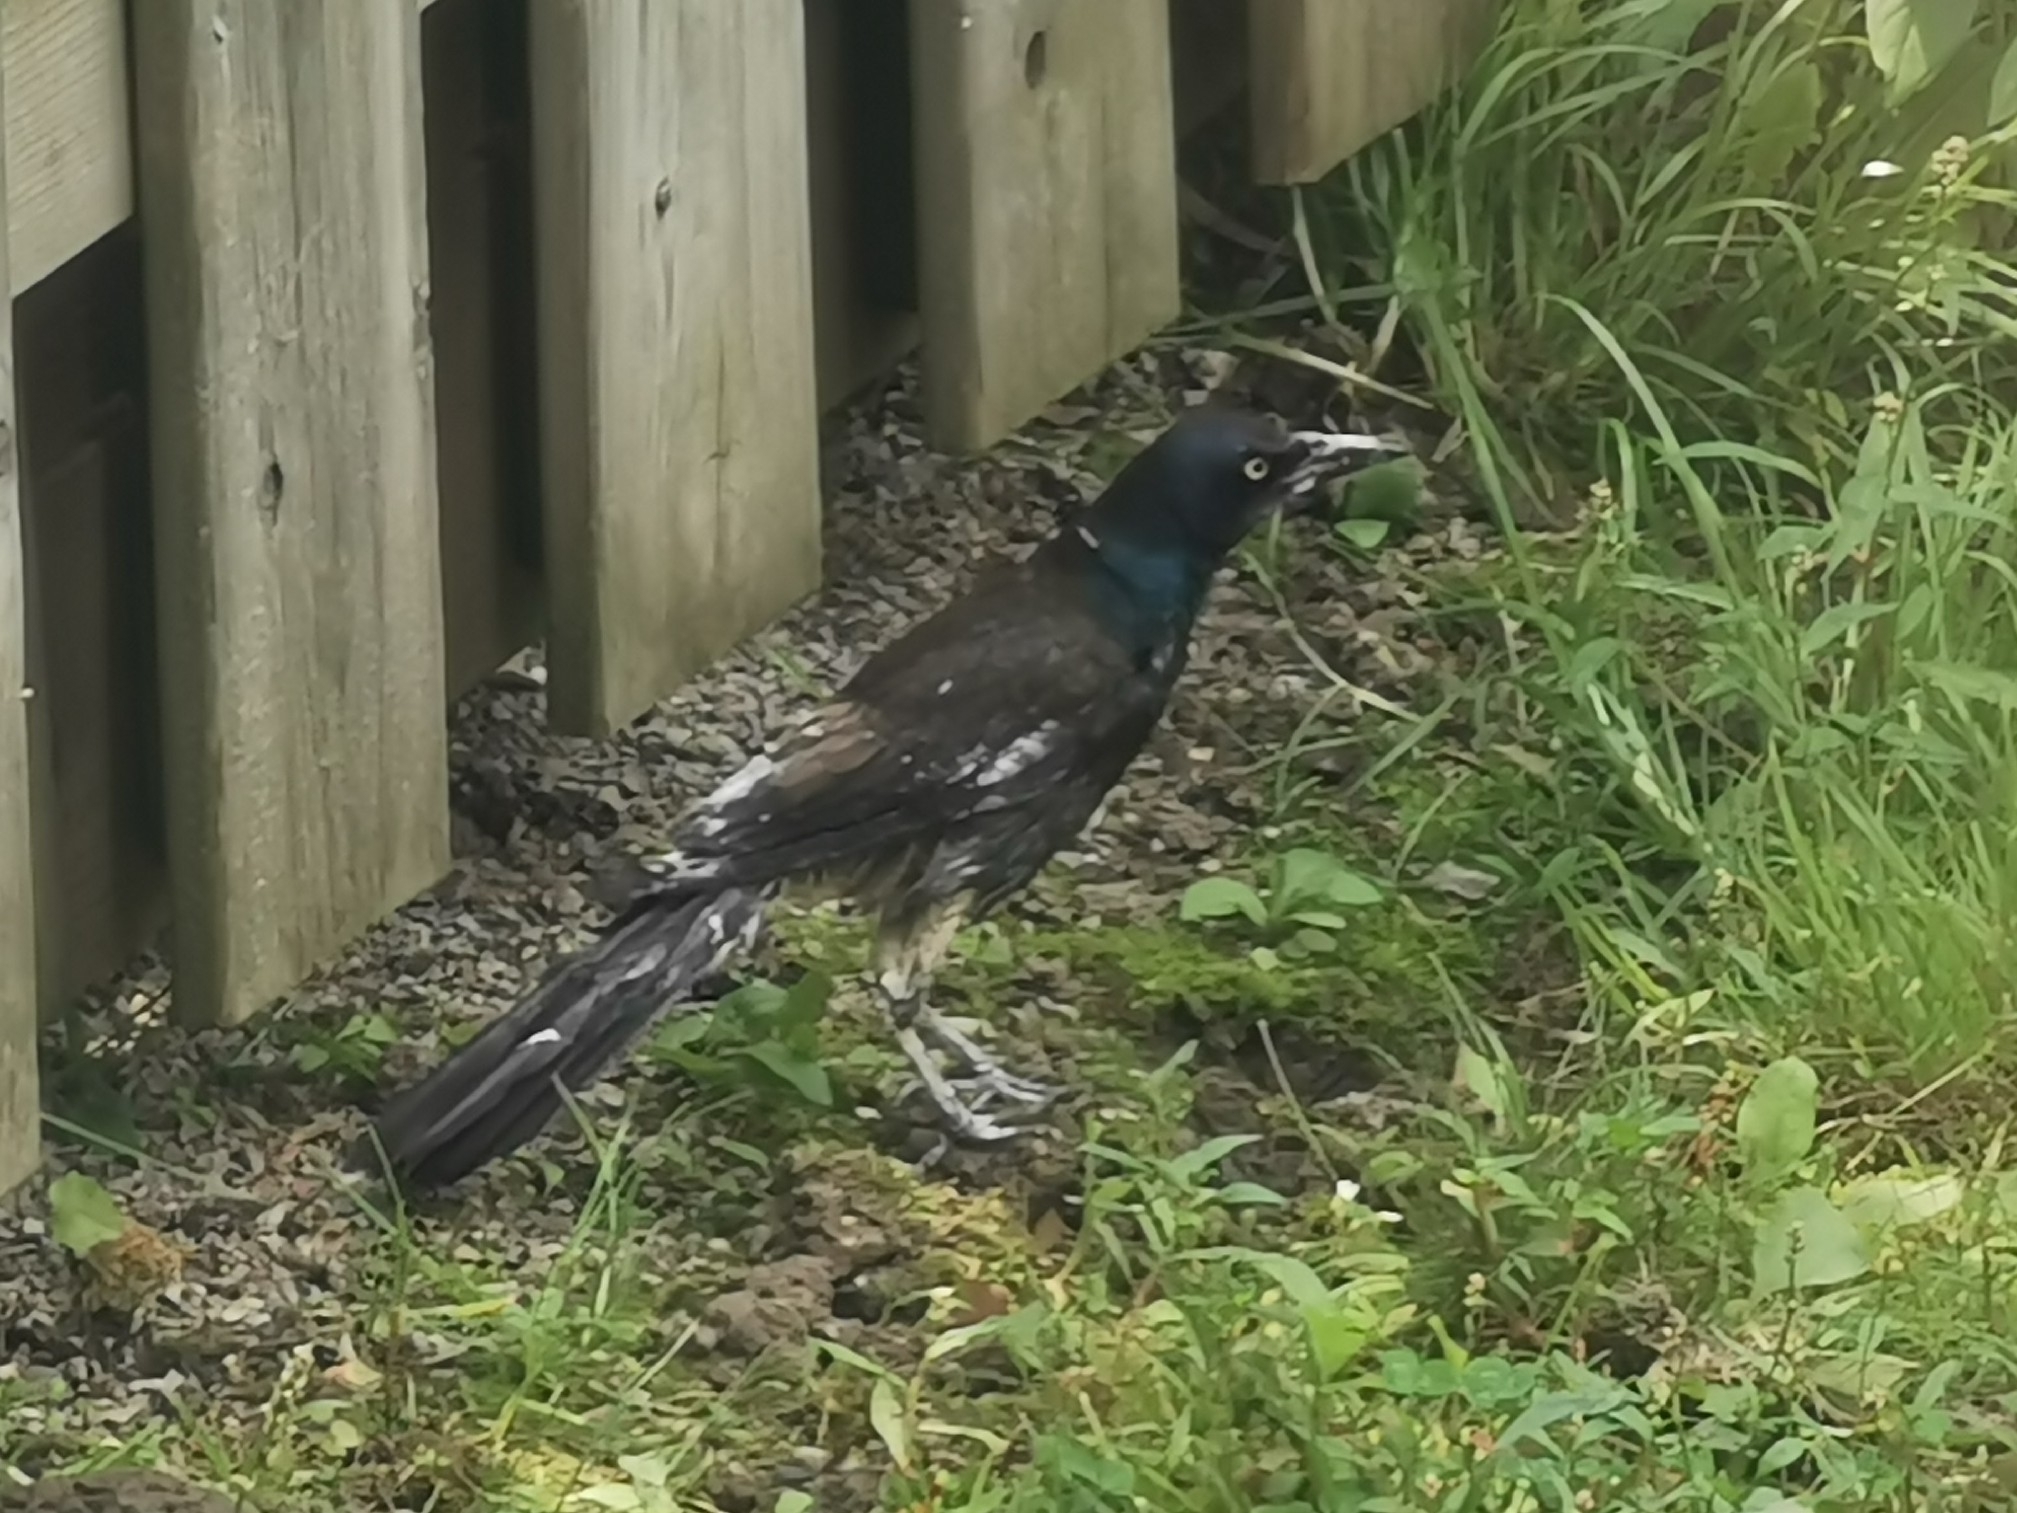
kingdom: Animalia
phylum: Chordata
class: Aves
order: Passeriformes
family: Icteridae
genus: Quiscalus
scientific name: Quiscalus quiscula
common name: Common grackle
